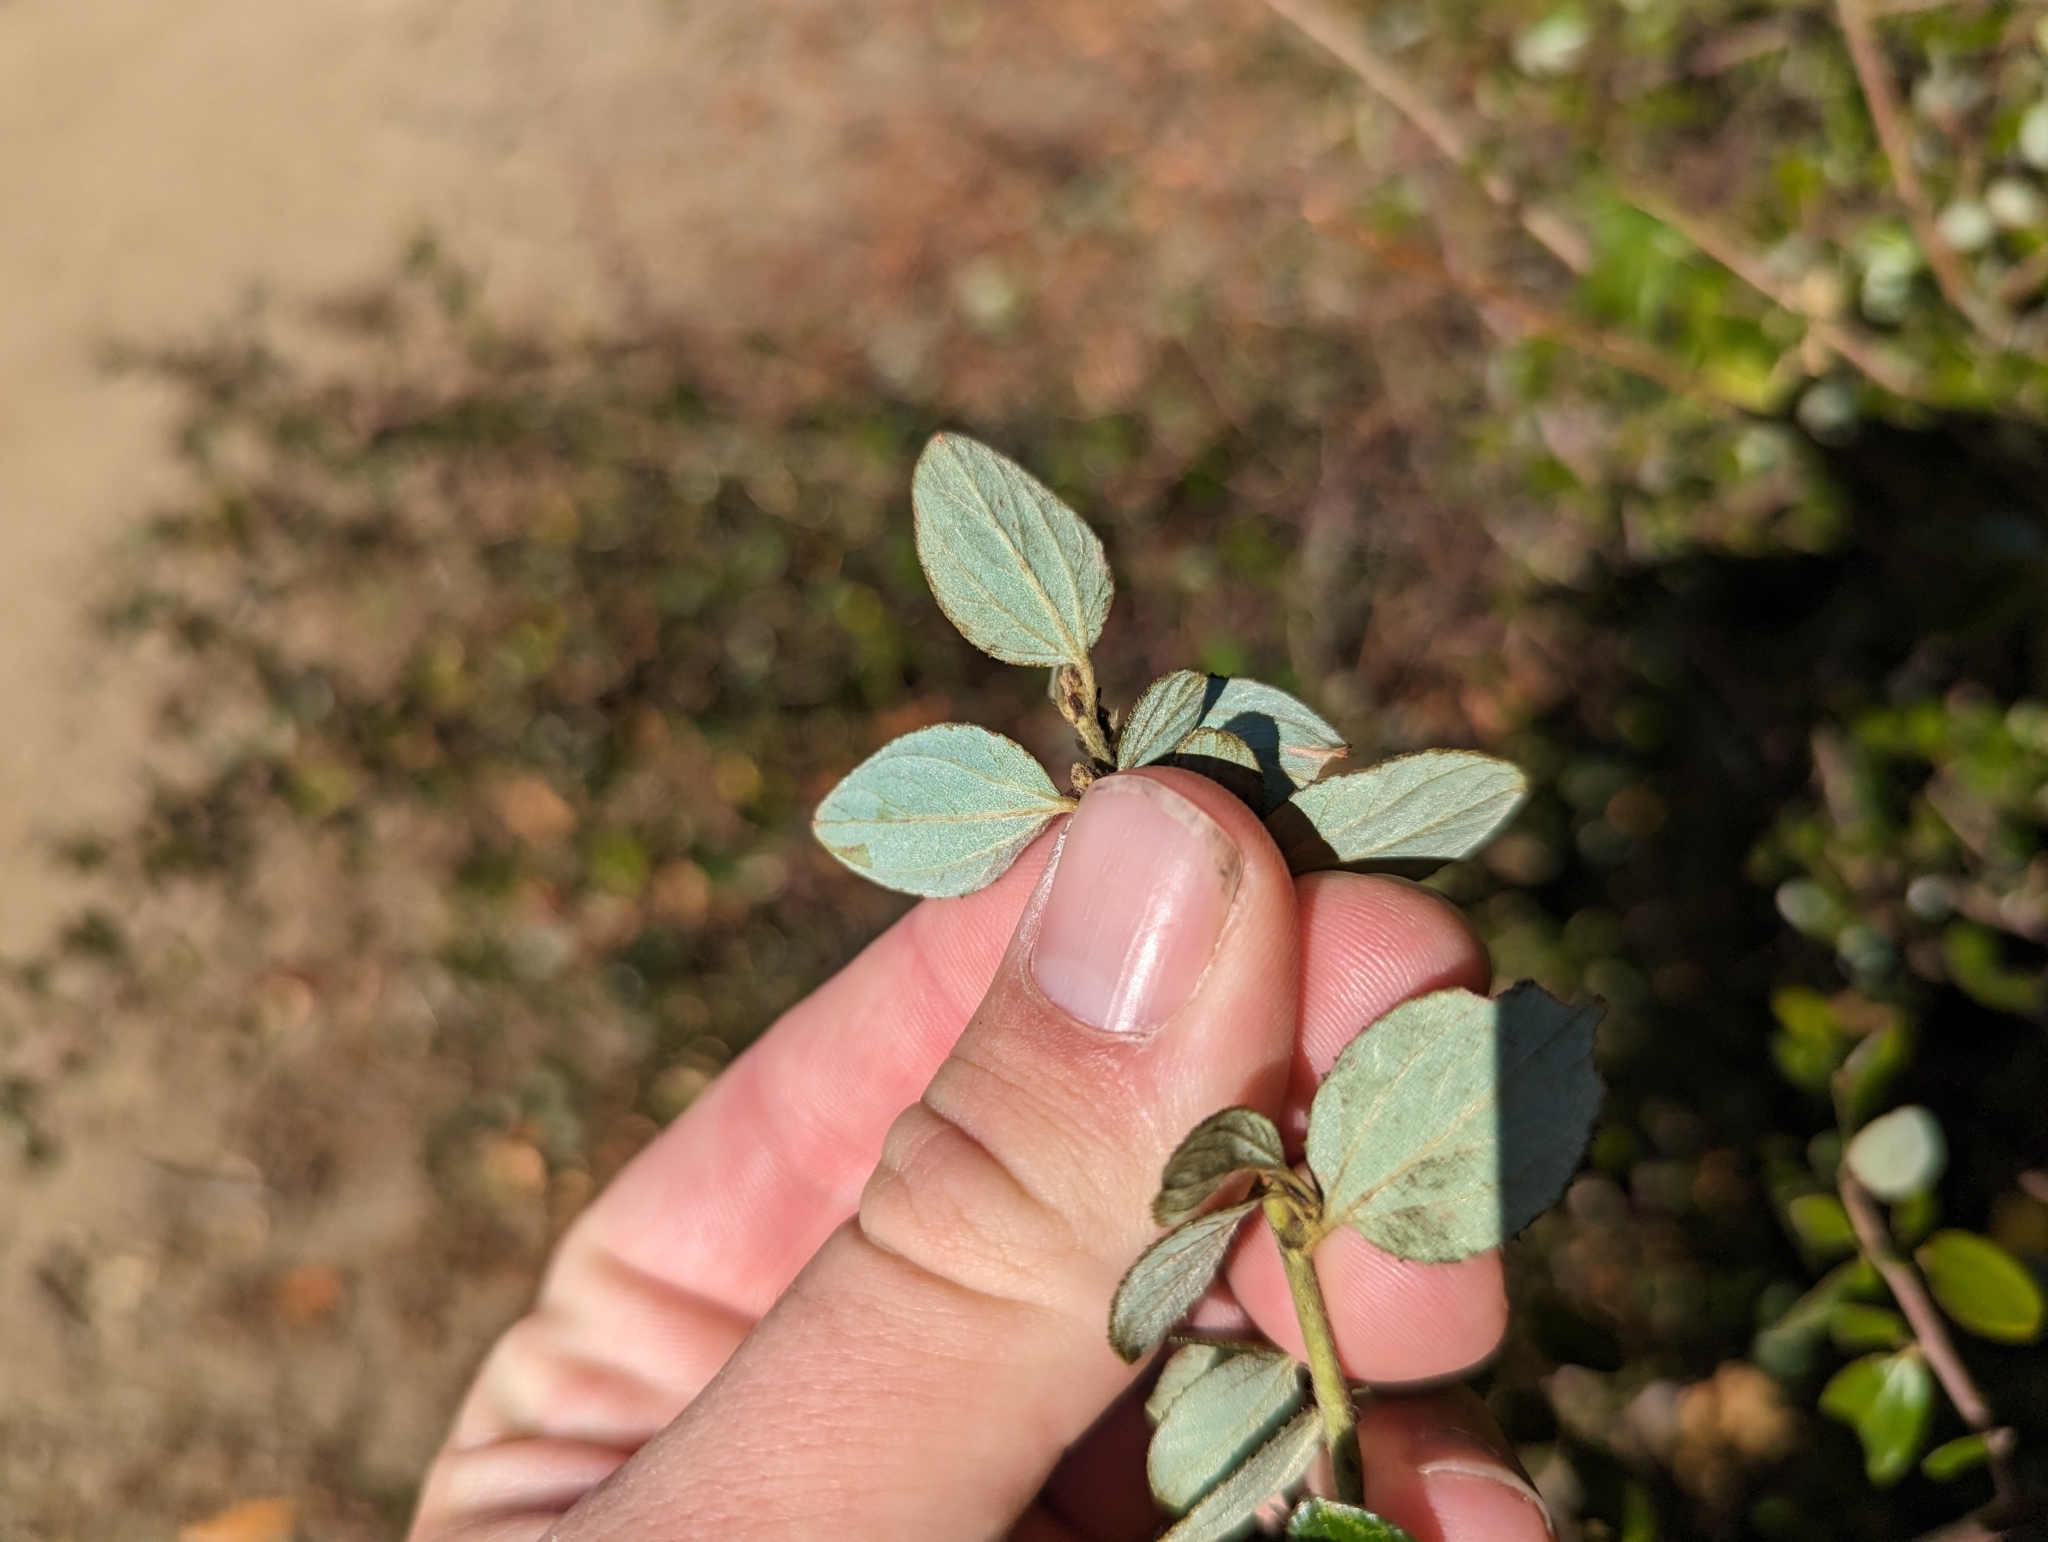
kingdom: Plantae
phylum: Tracheophyta
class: Magnoliopsida
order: Rosales
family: Rhamnaceae
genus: Ceanothus
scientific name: Ceanothus oliganthus
